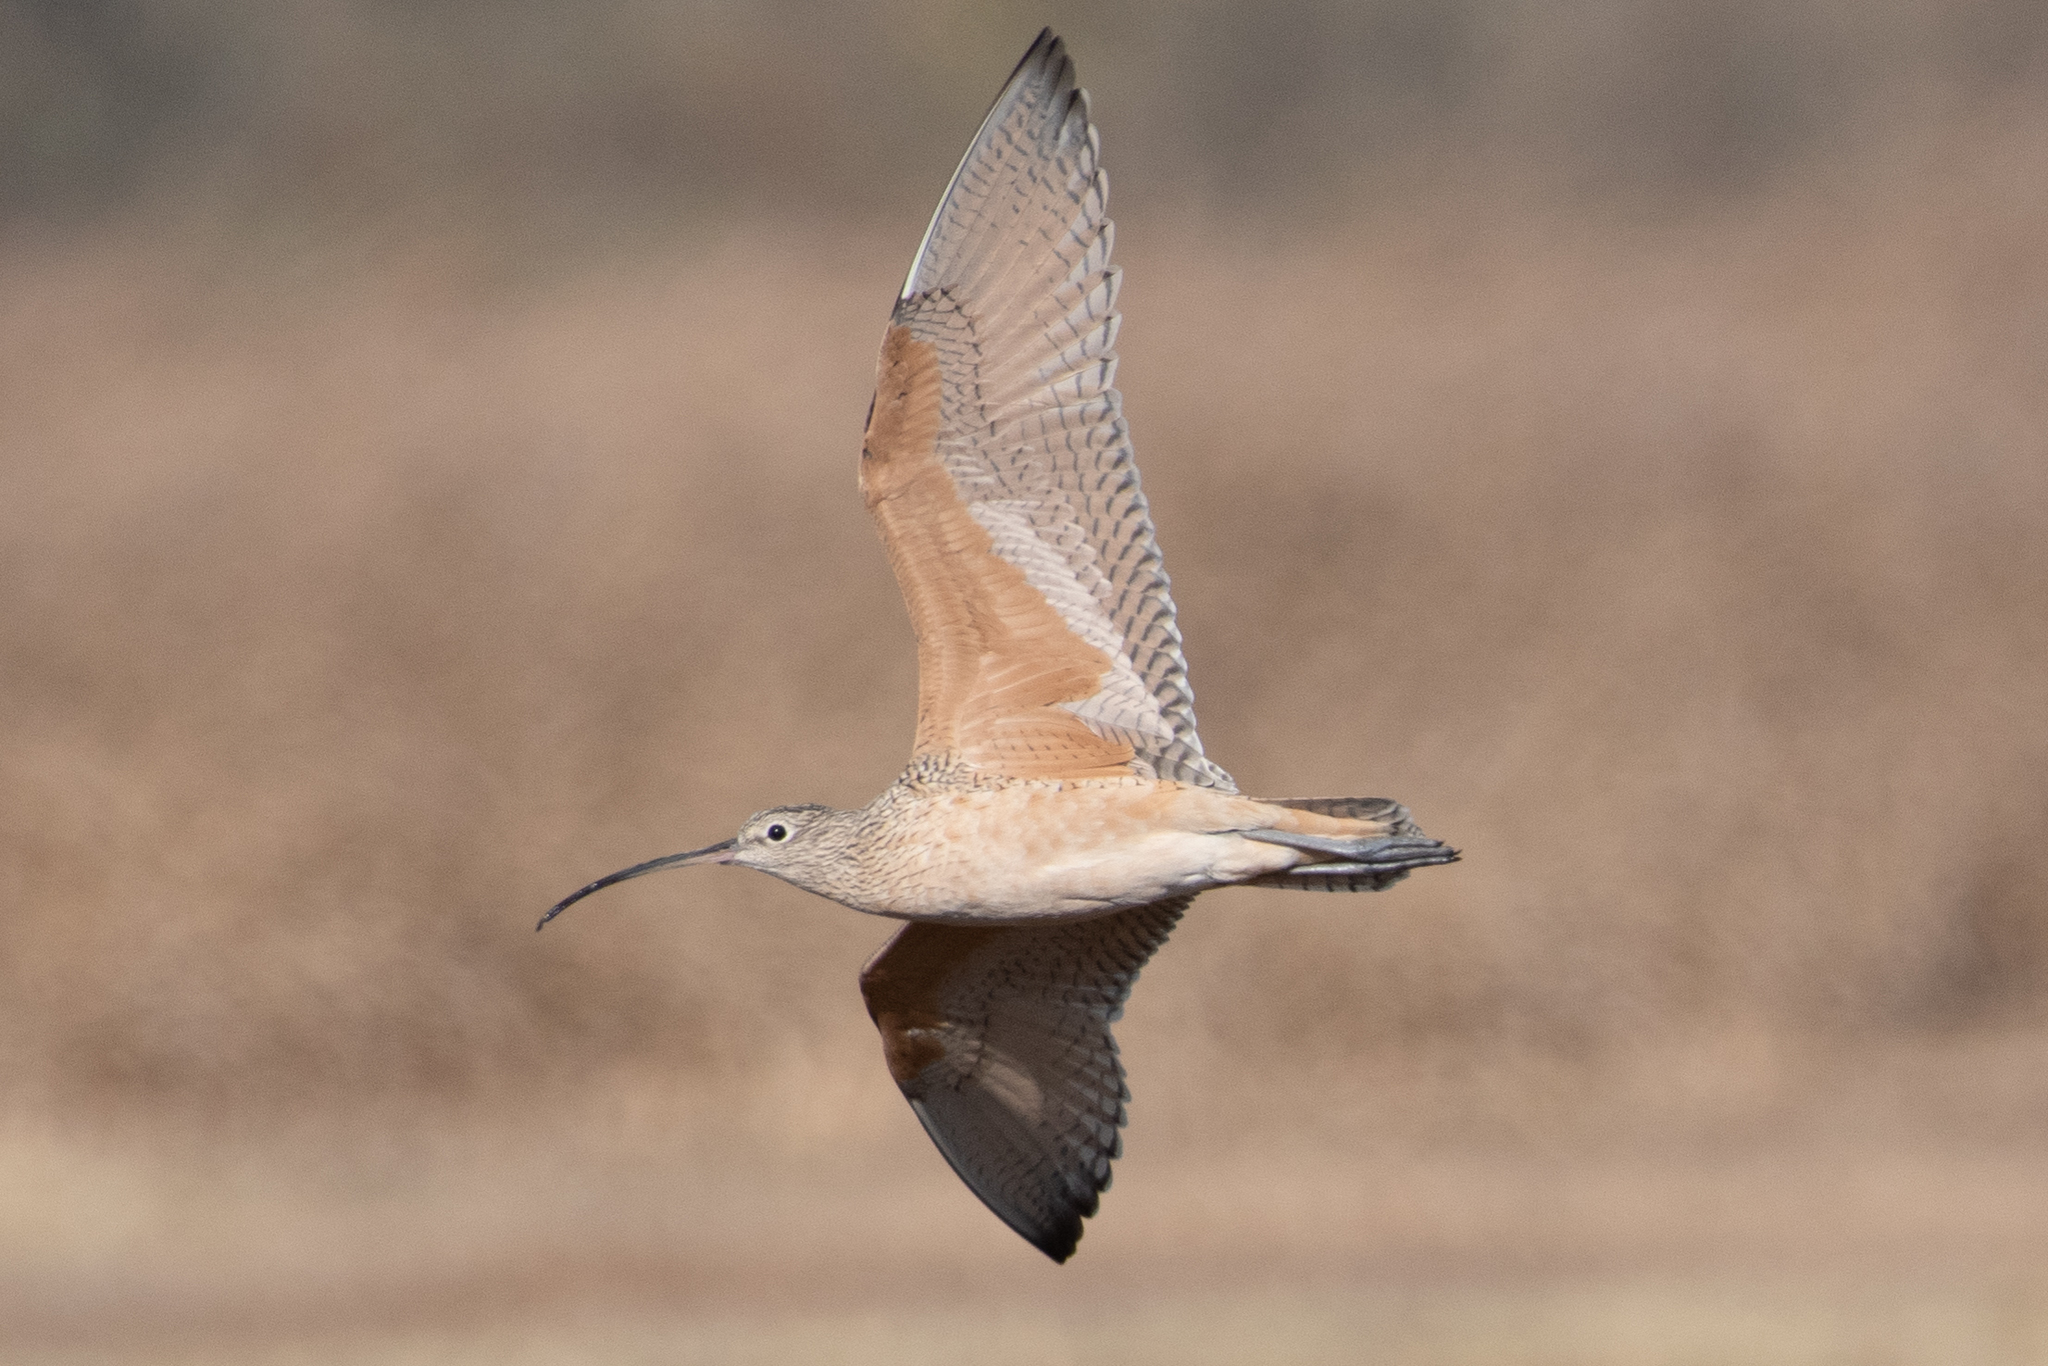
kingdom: Animalia
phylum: Chordata
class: Aves
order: Charadriiformes
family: Scolopacidae
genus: Numenius
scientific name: Numenius americanus
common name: Long-billed curlew
